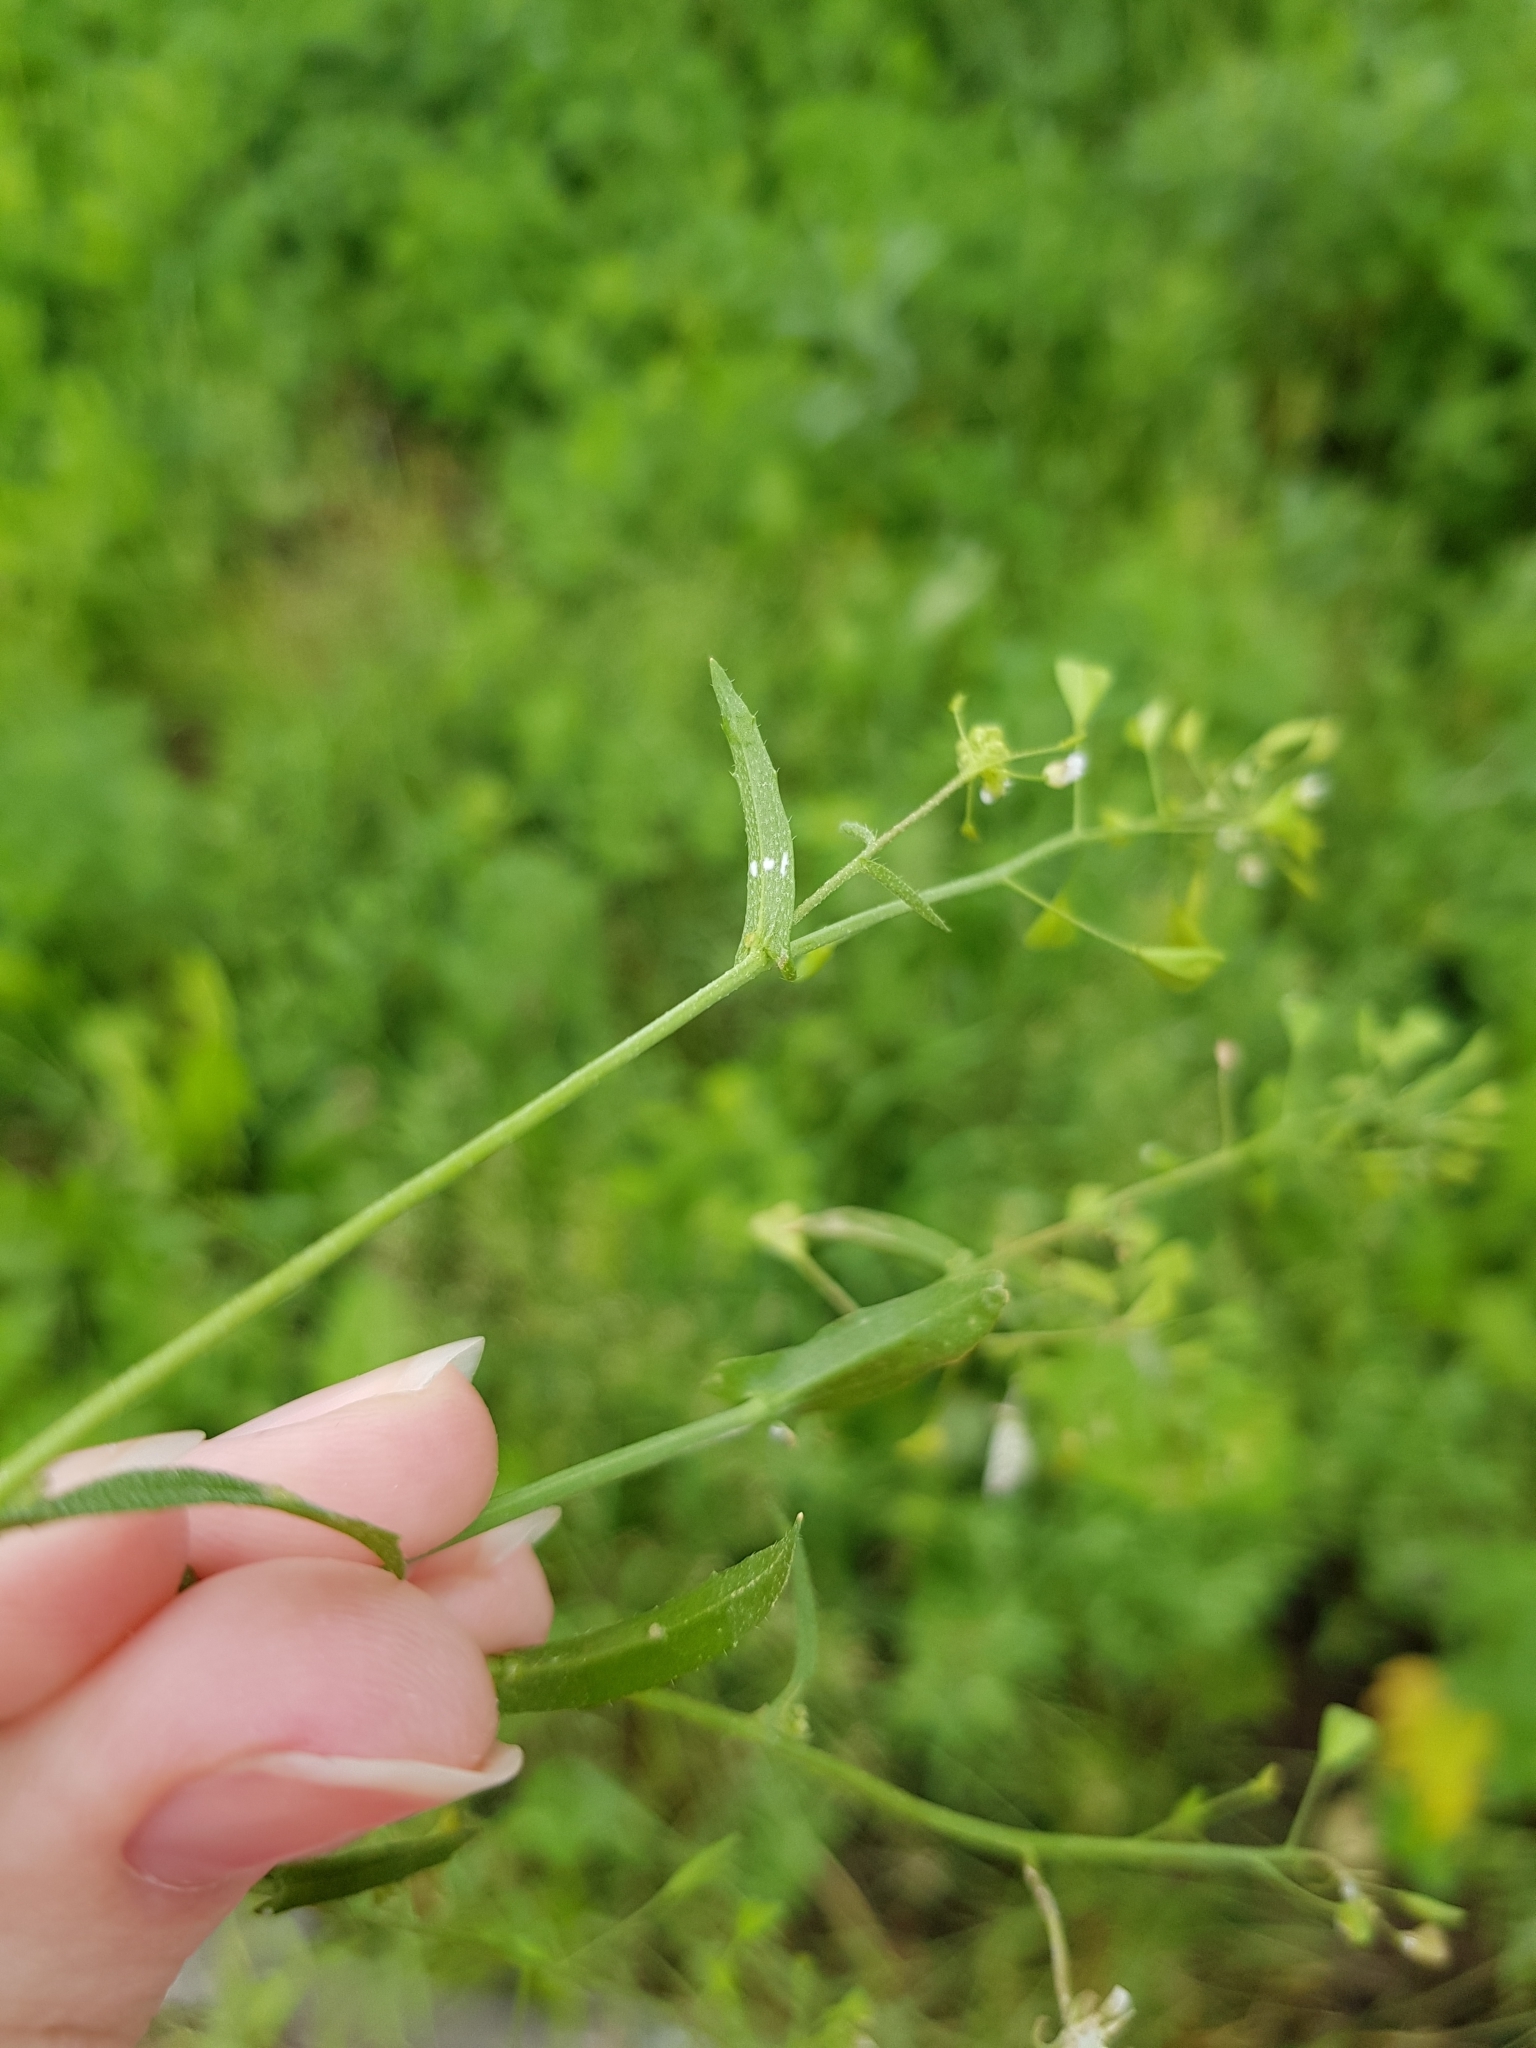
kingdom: Plantae
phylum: Tracheophyta
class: Magnoliopsida
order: Brassicales
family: Brassicaceae
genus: Capsella
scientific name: Capsella bursa-pastoris
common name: Shepherd's purse
